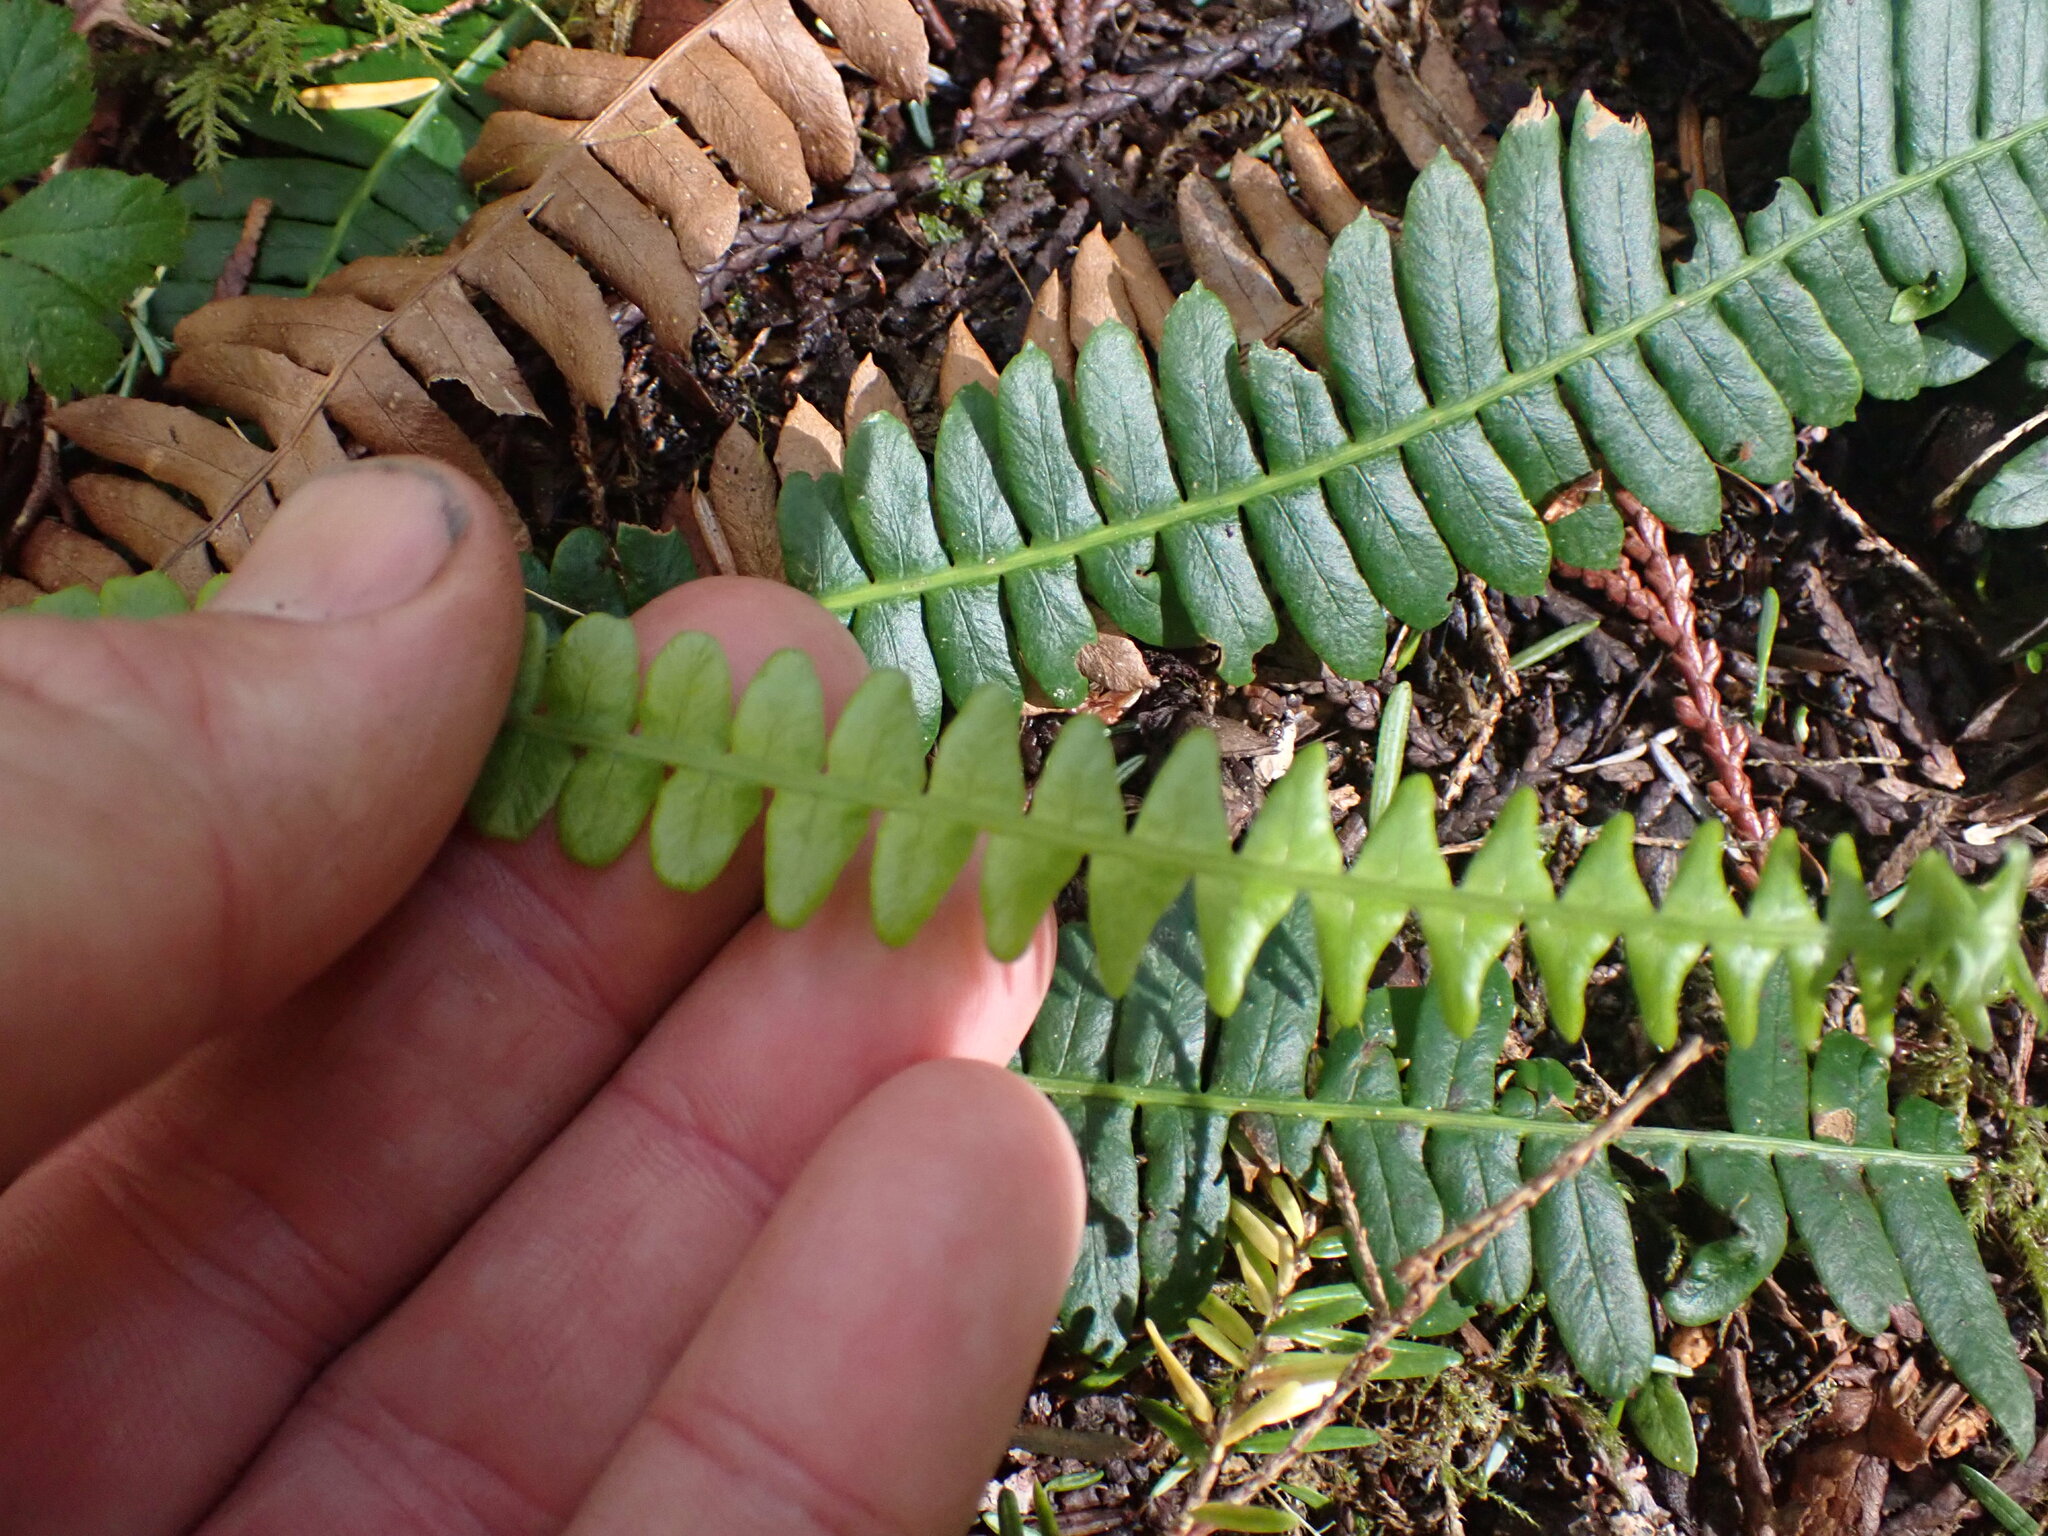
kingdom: Plantae
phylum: Tracheophyta
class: Polypodiopsida
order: Polypodiales
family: Blechnaceae
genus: Struthiopteris
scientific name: Struthiopteris spicant
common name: Deer fern
